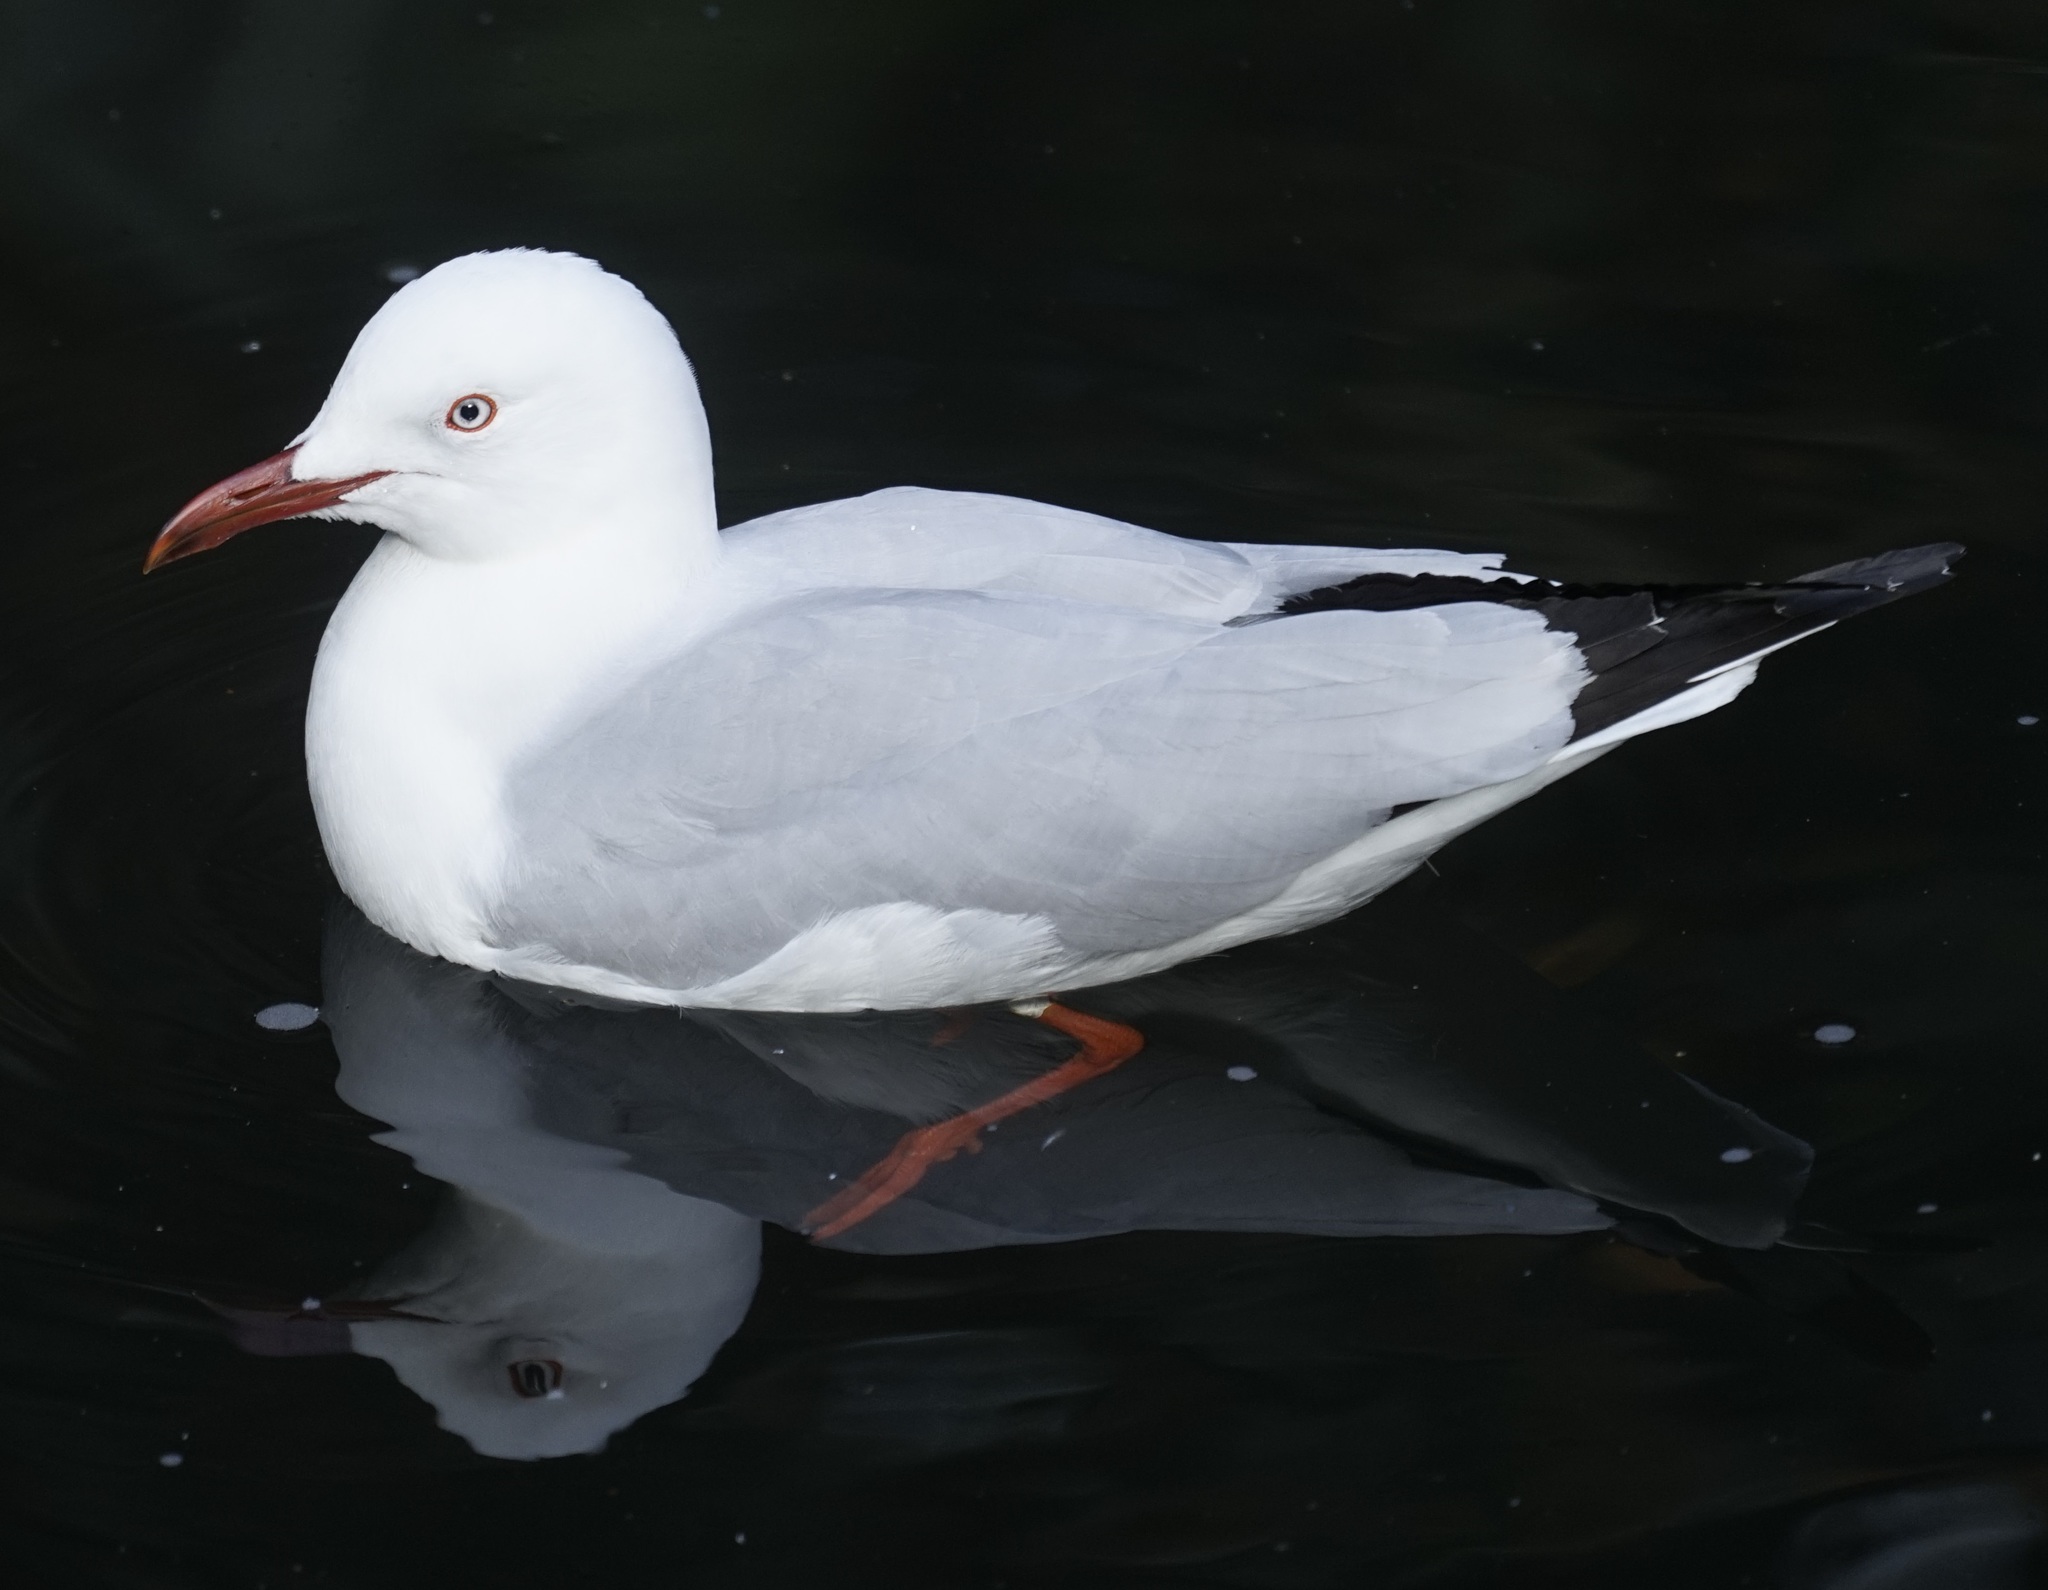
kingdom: Animalia
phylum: Chordata
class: Aves
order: Charadriiformes
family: Laridae
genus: Chroicocephalus
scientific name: Chroicocephalus novaehollandiae
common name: Silver gull
